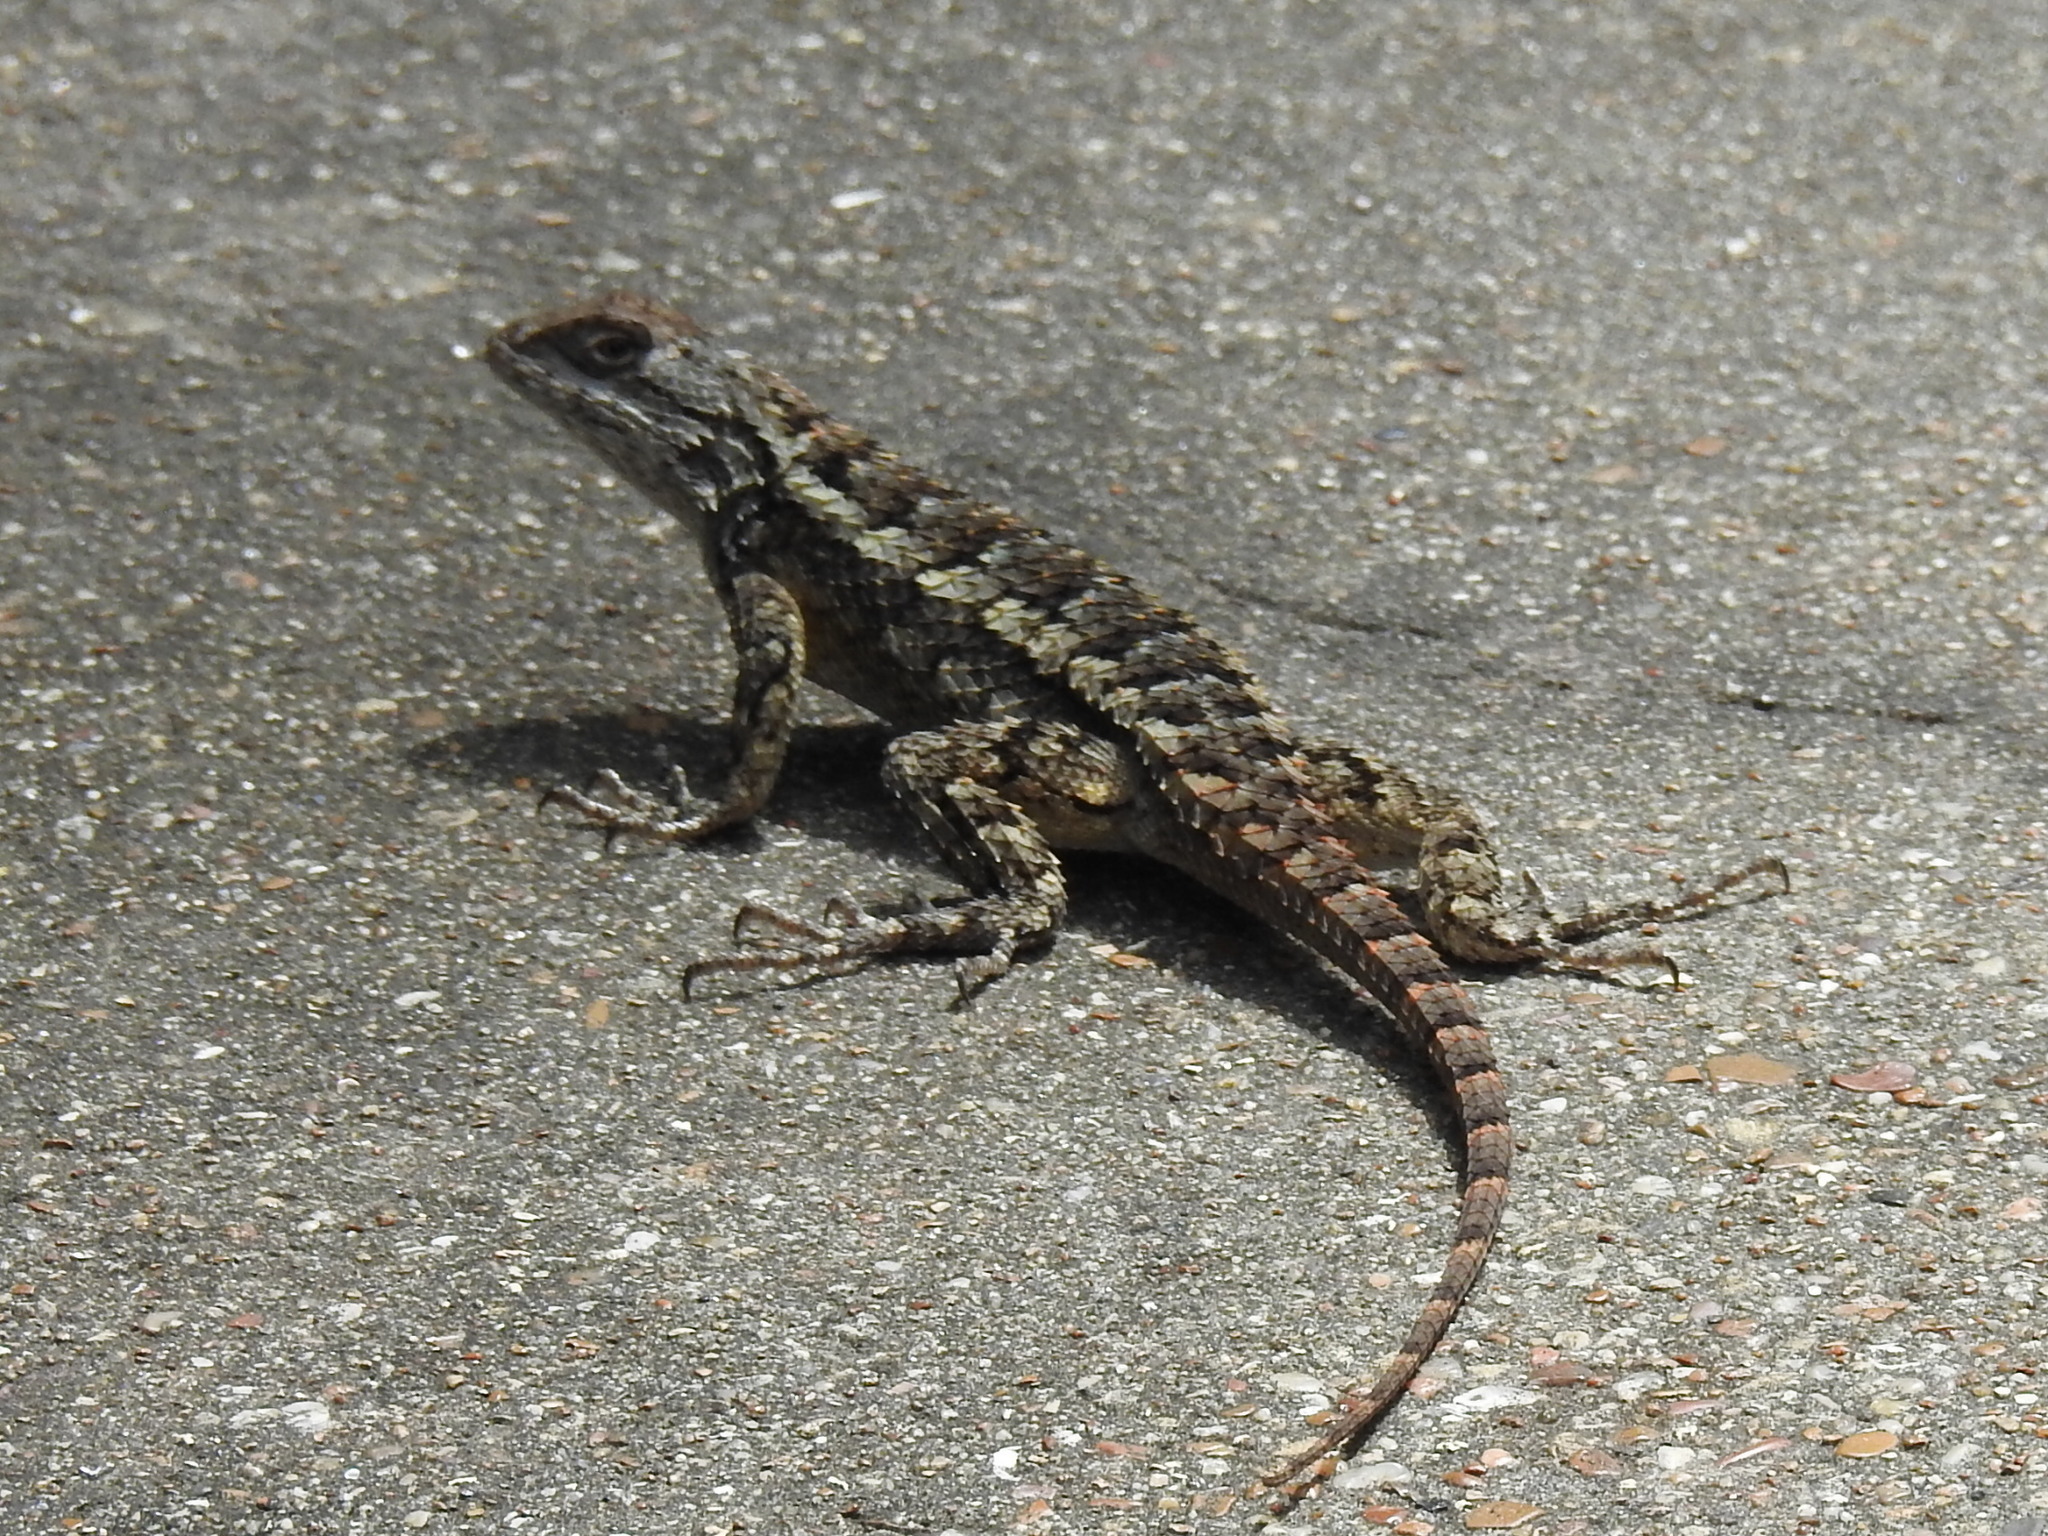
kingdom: Animalia
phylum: Chordata
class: Squamata
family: Phrynosomatidae
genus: Sceloporus
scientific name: Sceloporus olivaceus
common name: Texas spiny lizard
